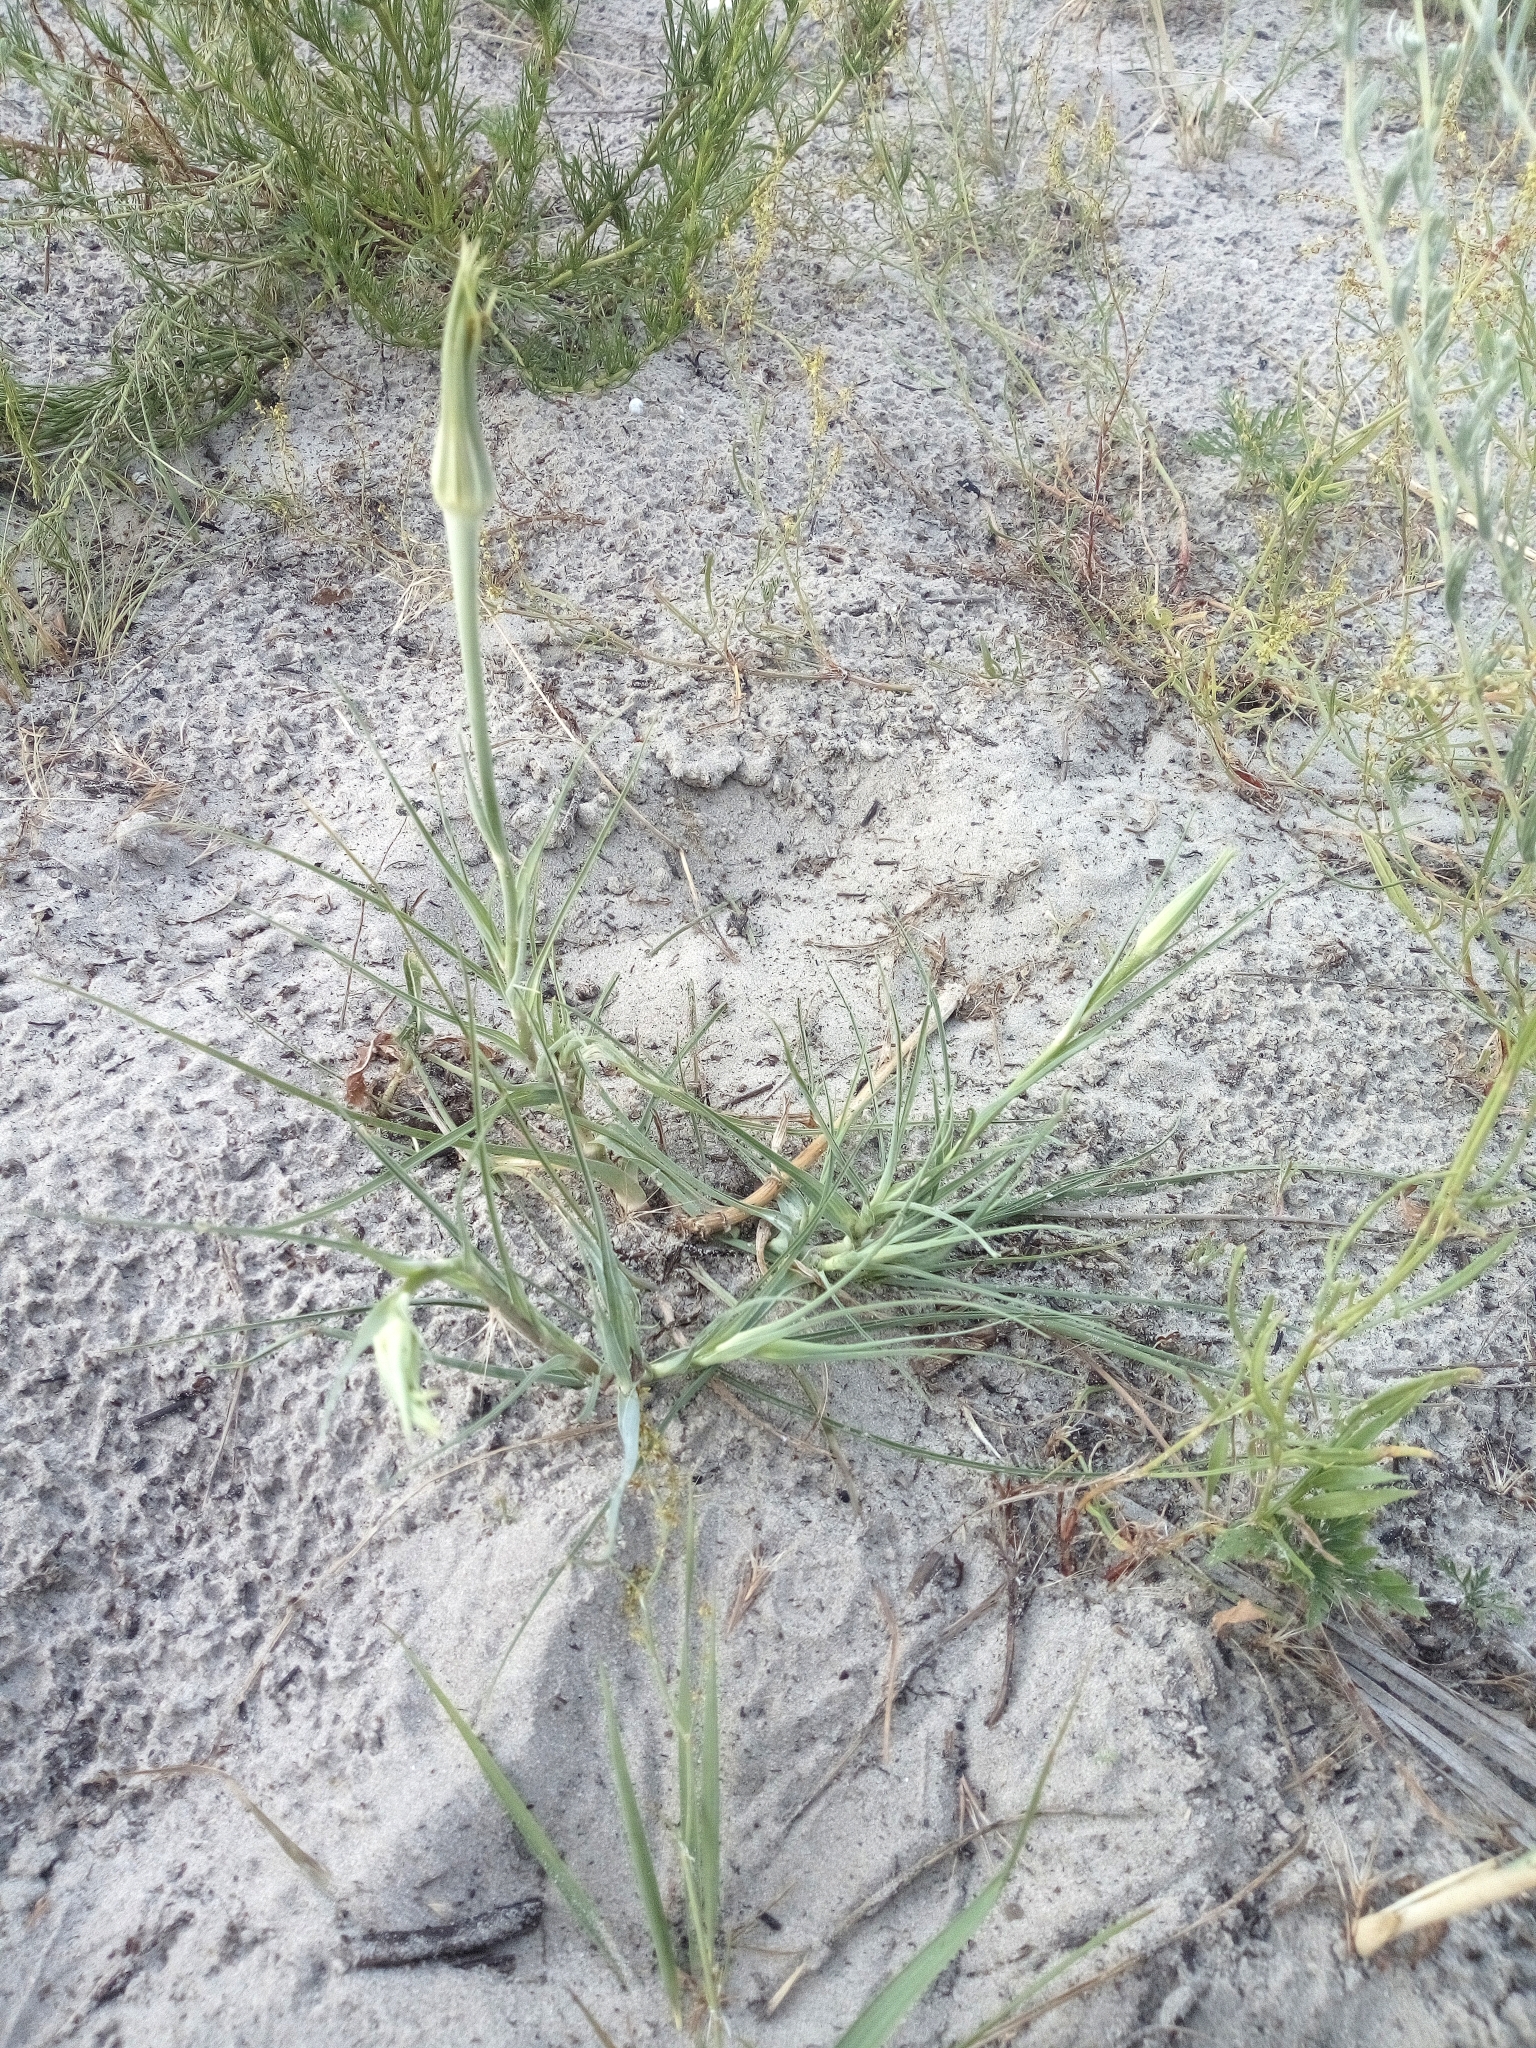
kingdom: Plantae
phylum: Tracheophyta
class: Magnoliopsida
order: Asterales
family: Asteraceae
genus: Tragopogon
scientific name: Tragopogon dubius
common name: Yellow salsify
